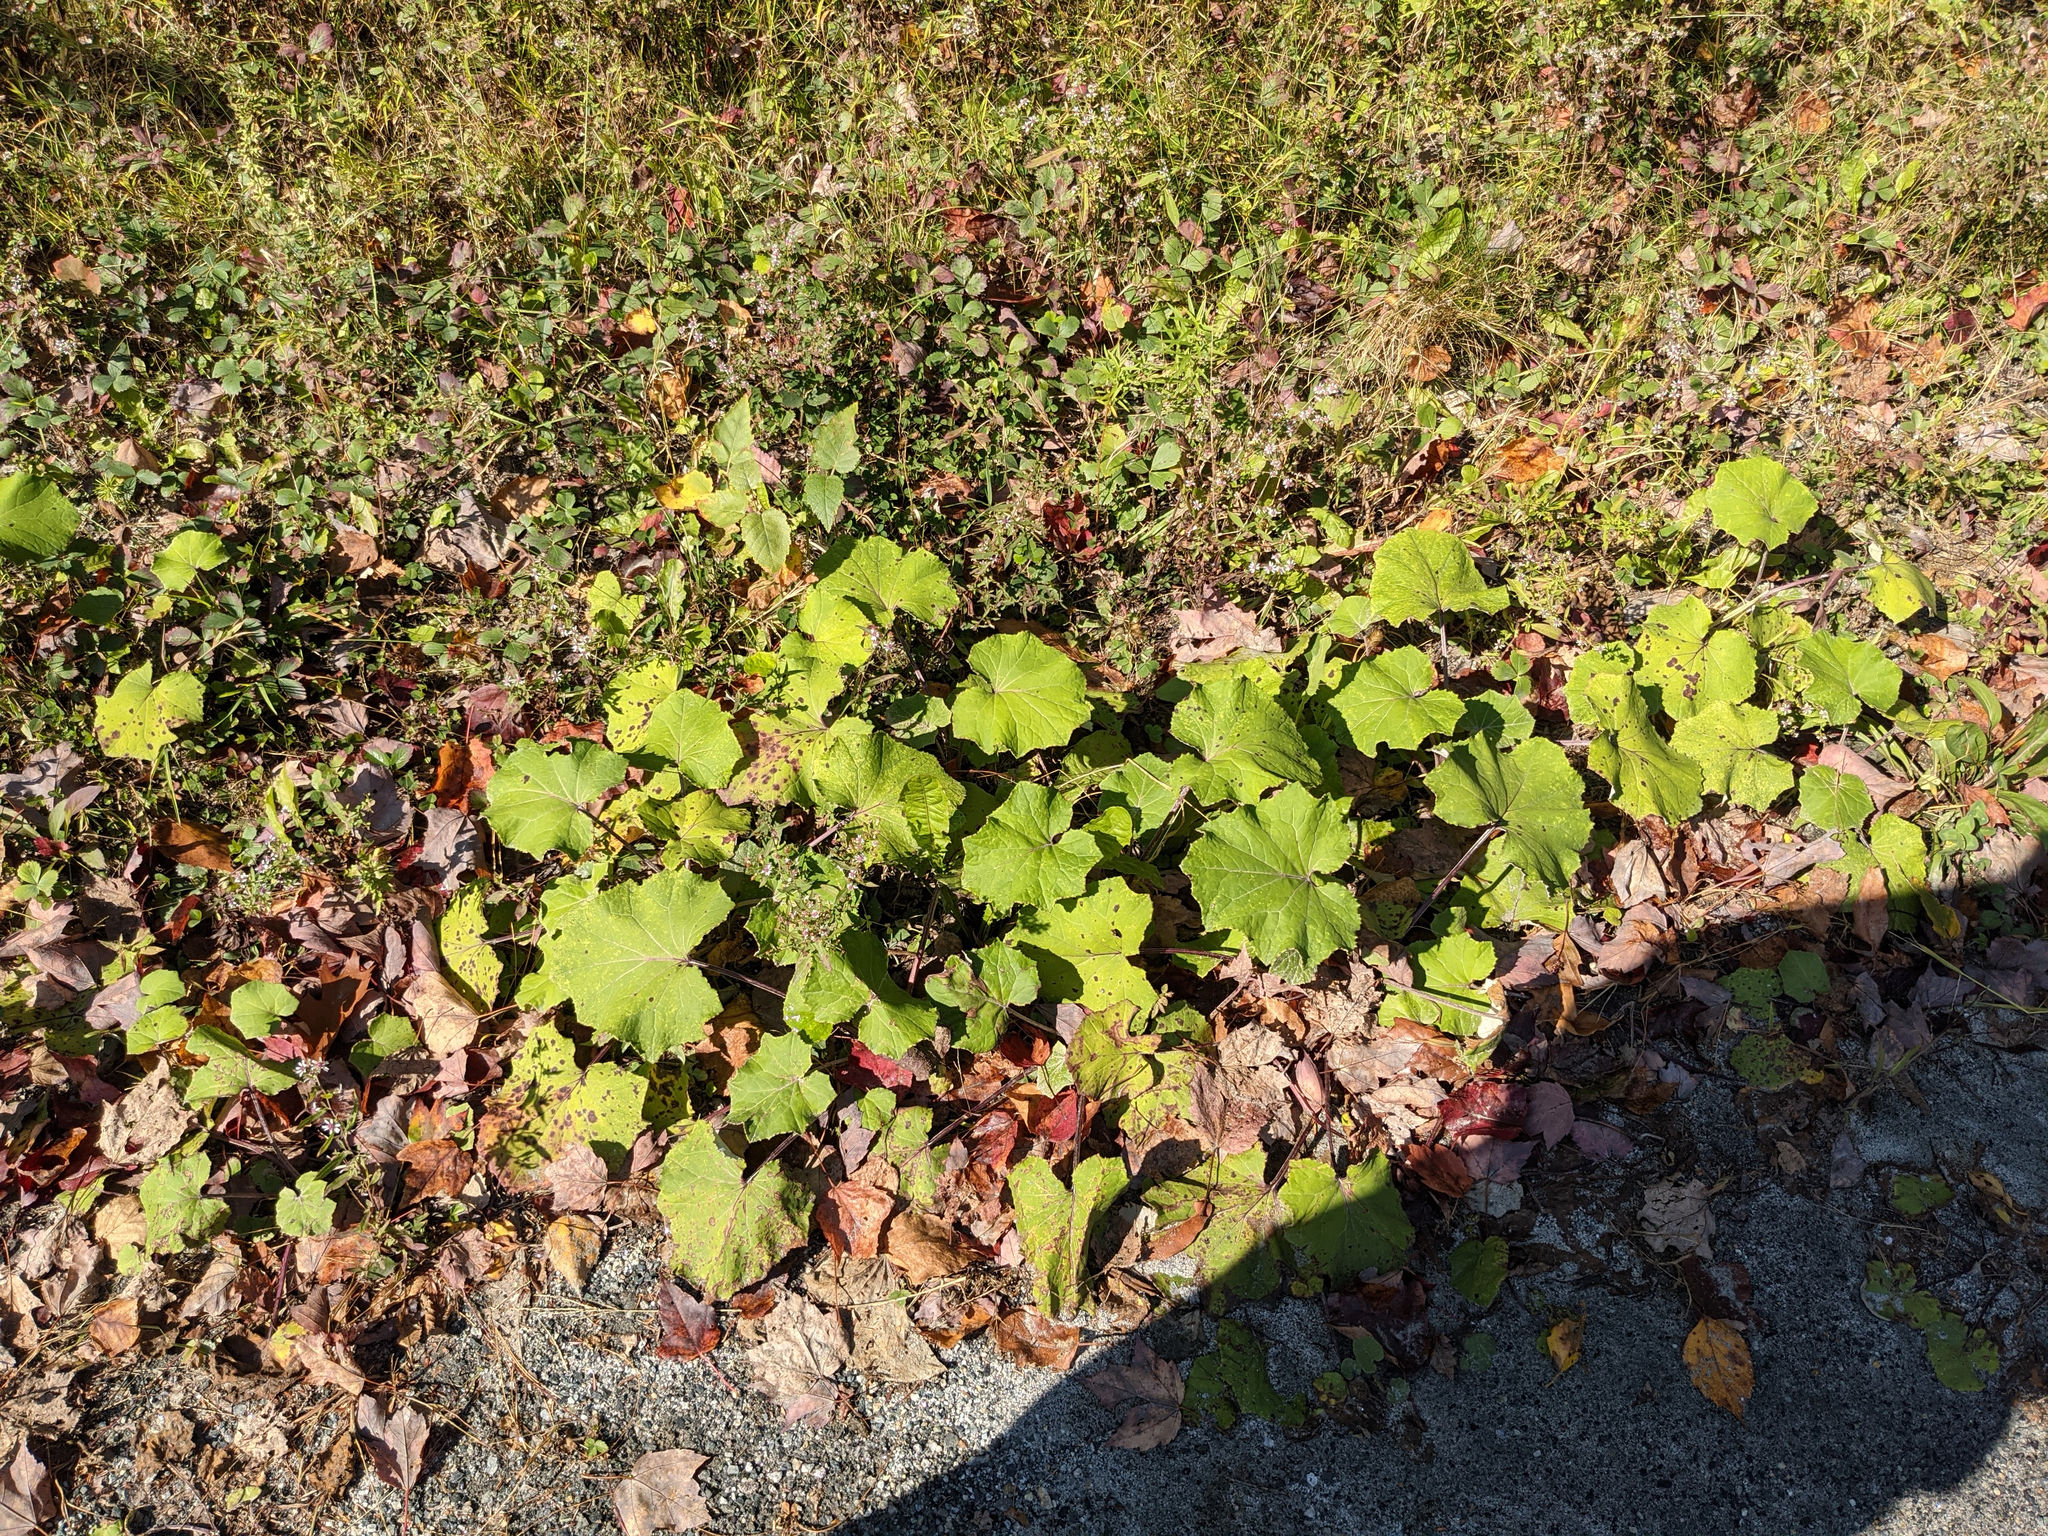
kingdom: Plantae
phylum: Tracheophyta
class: Magnoliopsida
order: Asterales
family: Asteraceae
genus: Tussilago
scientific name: Tussilago farfara
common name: Coltsfoot
